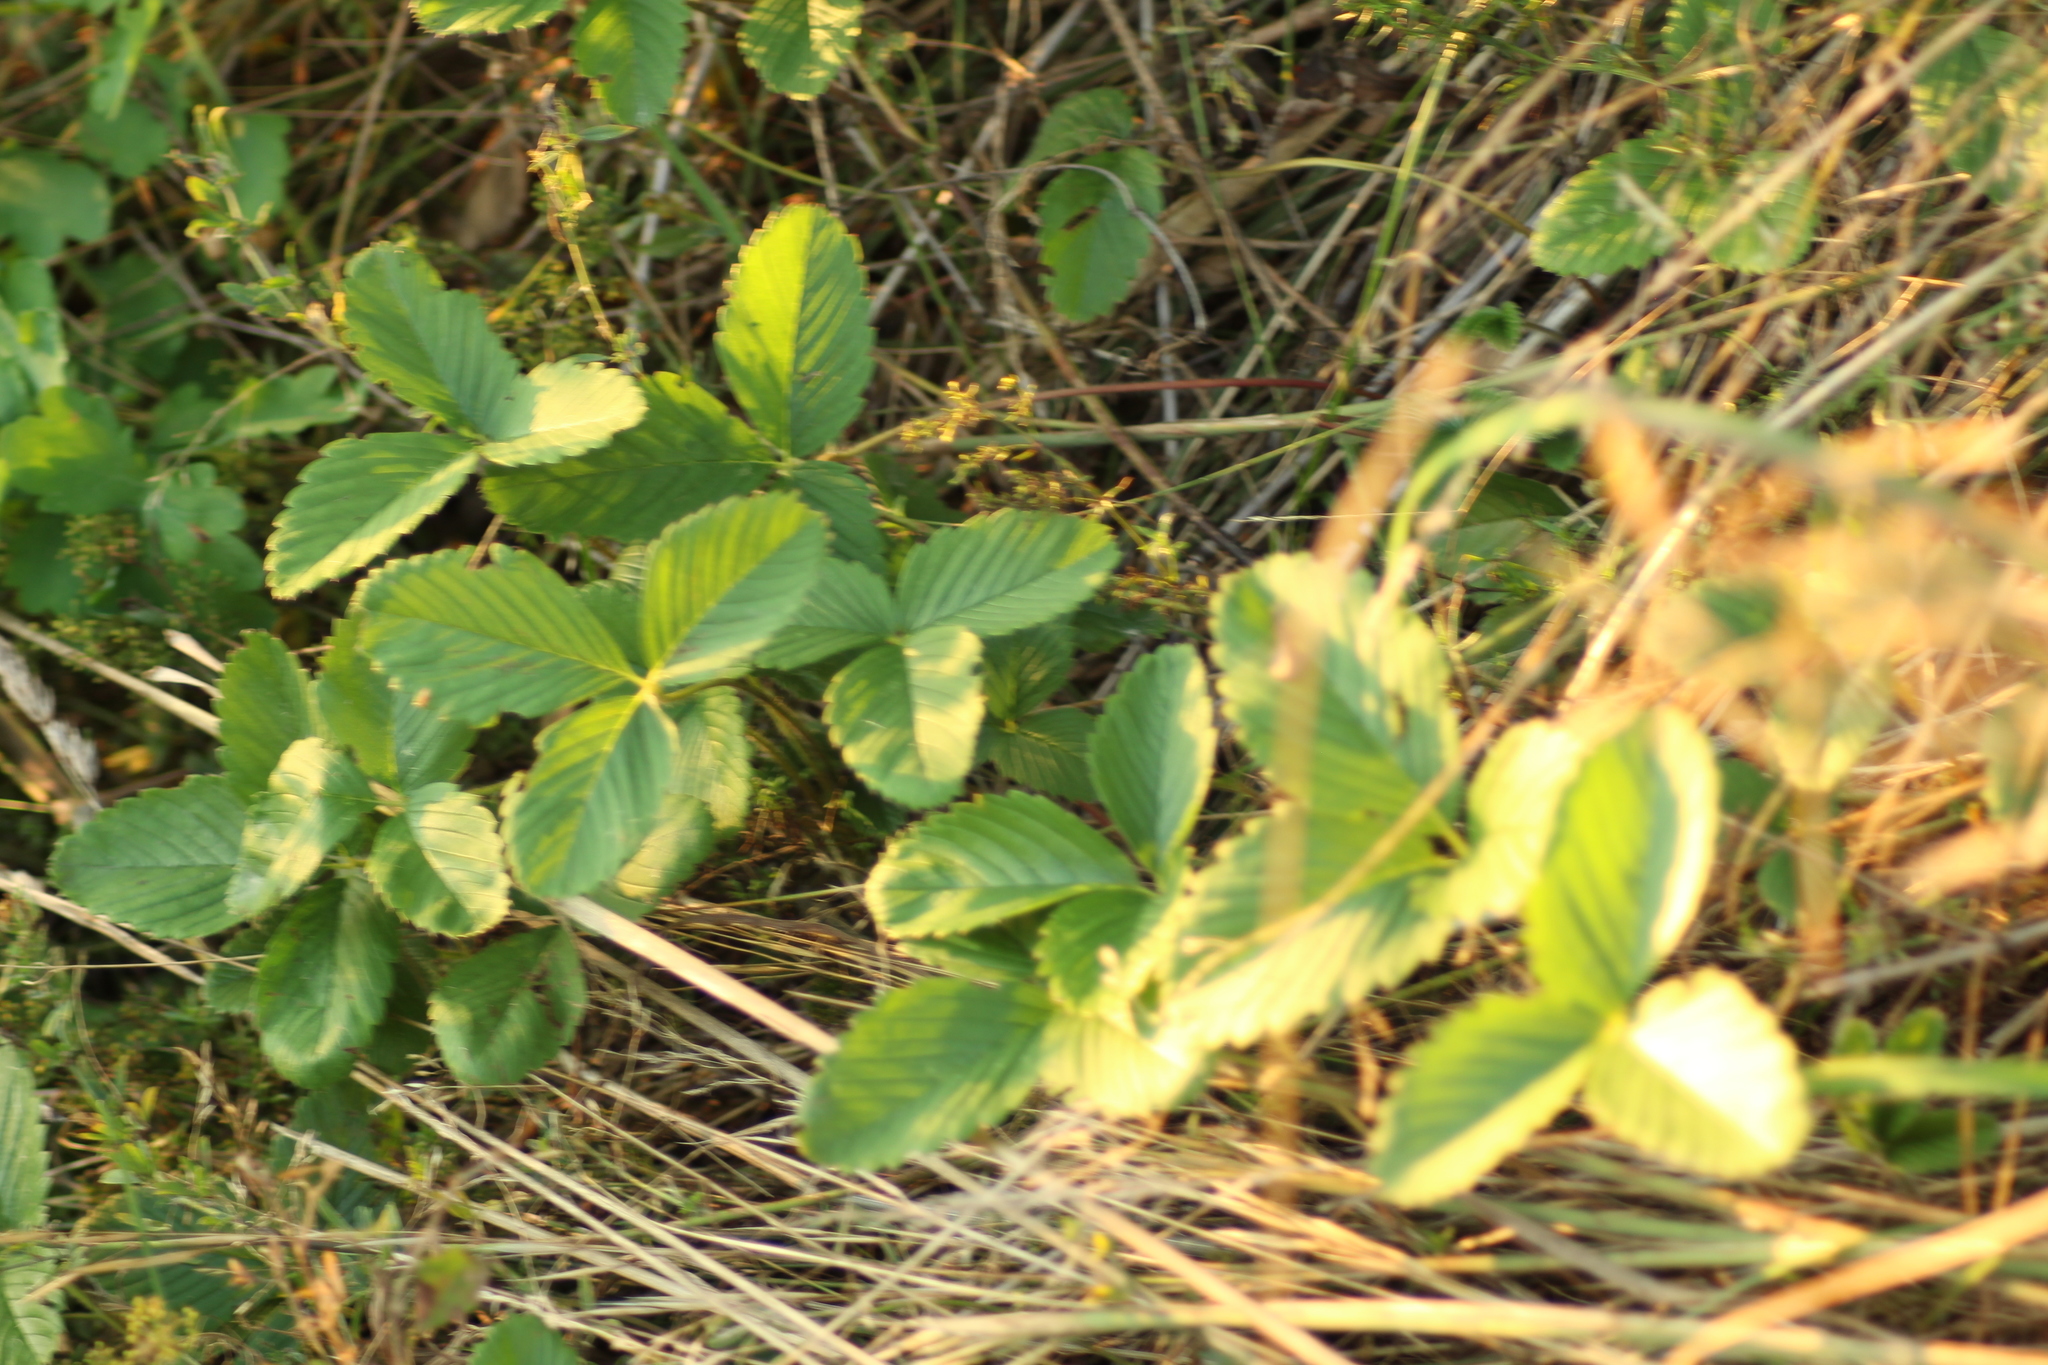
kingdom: Plantae
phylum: Tracheophyta
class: Magnoliopsida
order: Rosales
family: Rosaceae
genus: Fragaria
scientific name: Fragaria viridis
